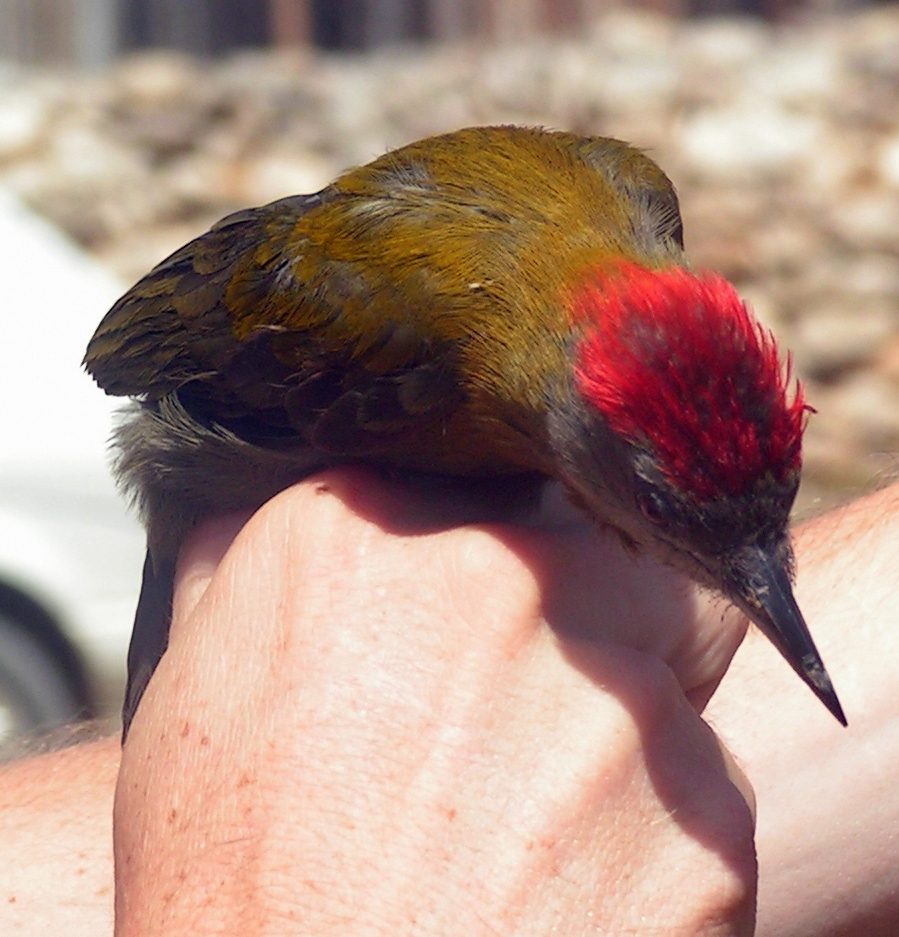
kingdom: Animalia
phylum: Chordata
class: Aves
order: Piciformes
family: Picidae
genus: Dendropicos
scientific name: Dendropicos griseocephalus
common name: Olive woodpecker
